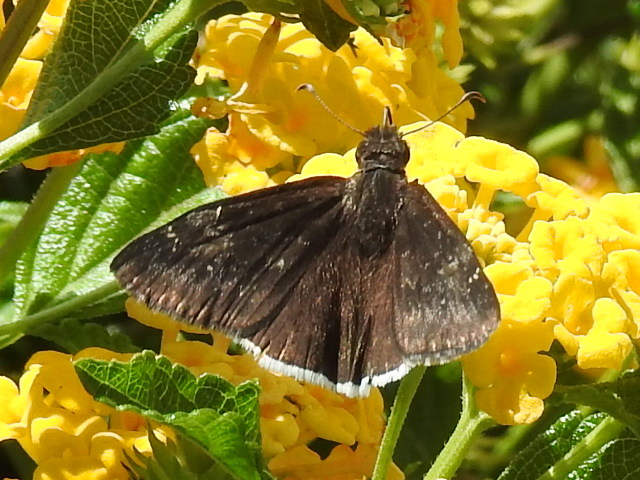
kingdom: Animalia
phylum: Arthropoda
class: Insecta
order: Lepidoptera
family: Hesperiidae
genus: Erynnis
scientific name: Erynnis funeralis
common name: Funereal duskywing
